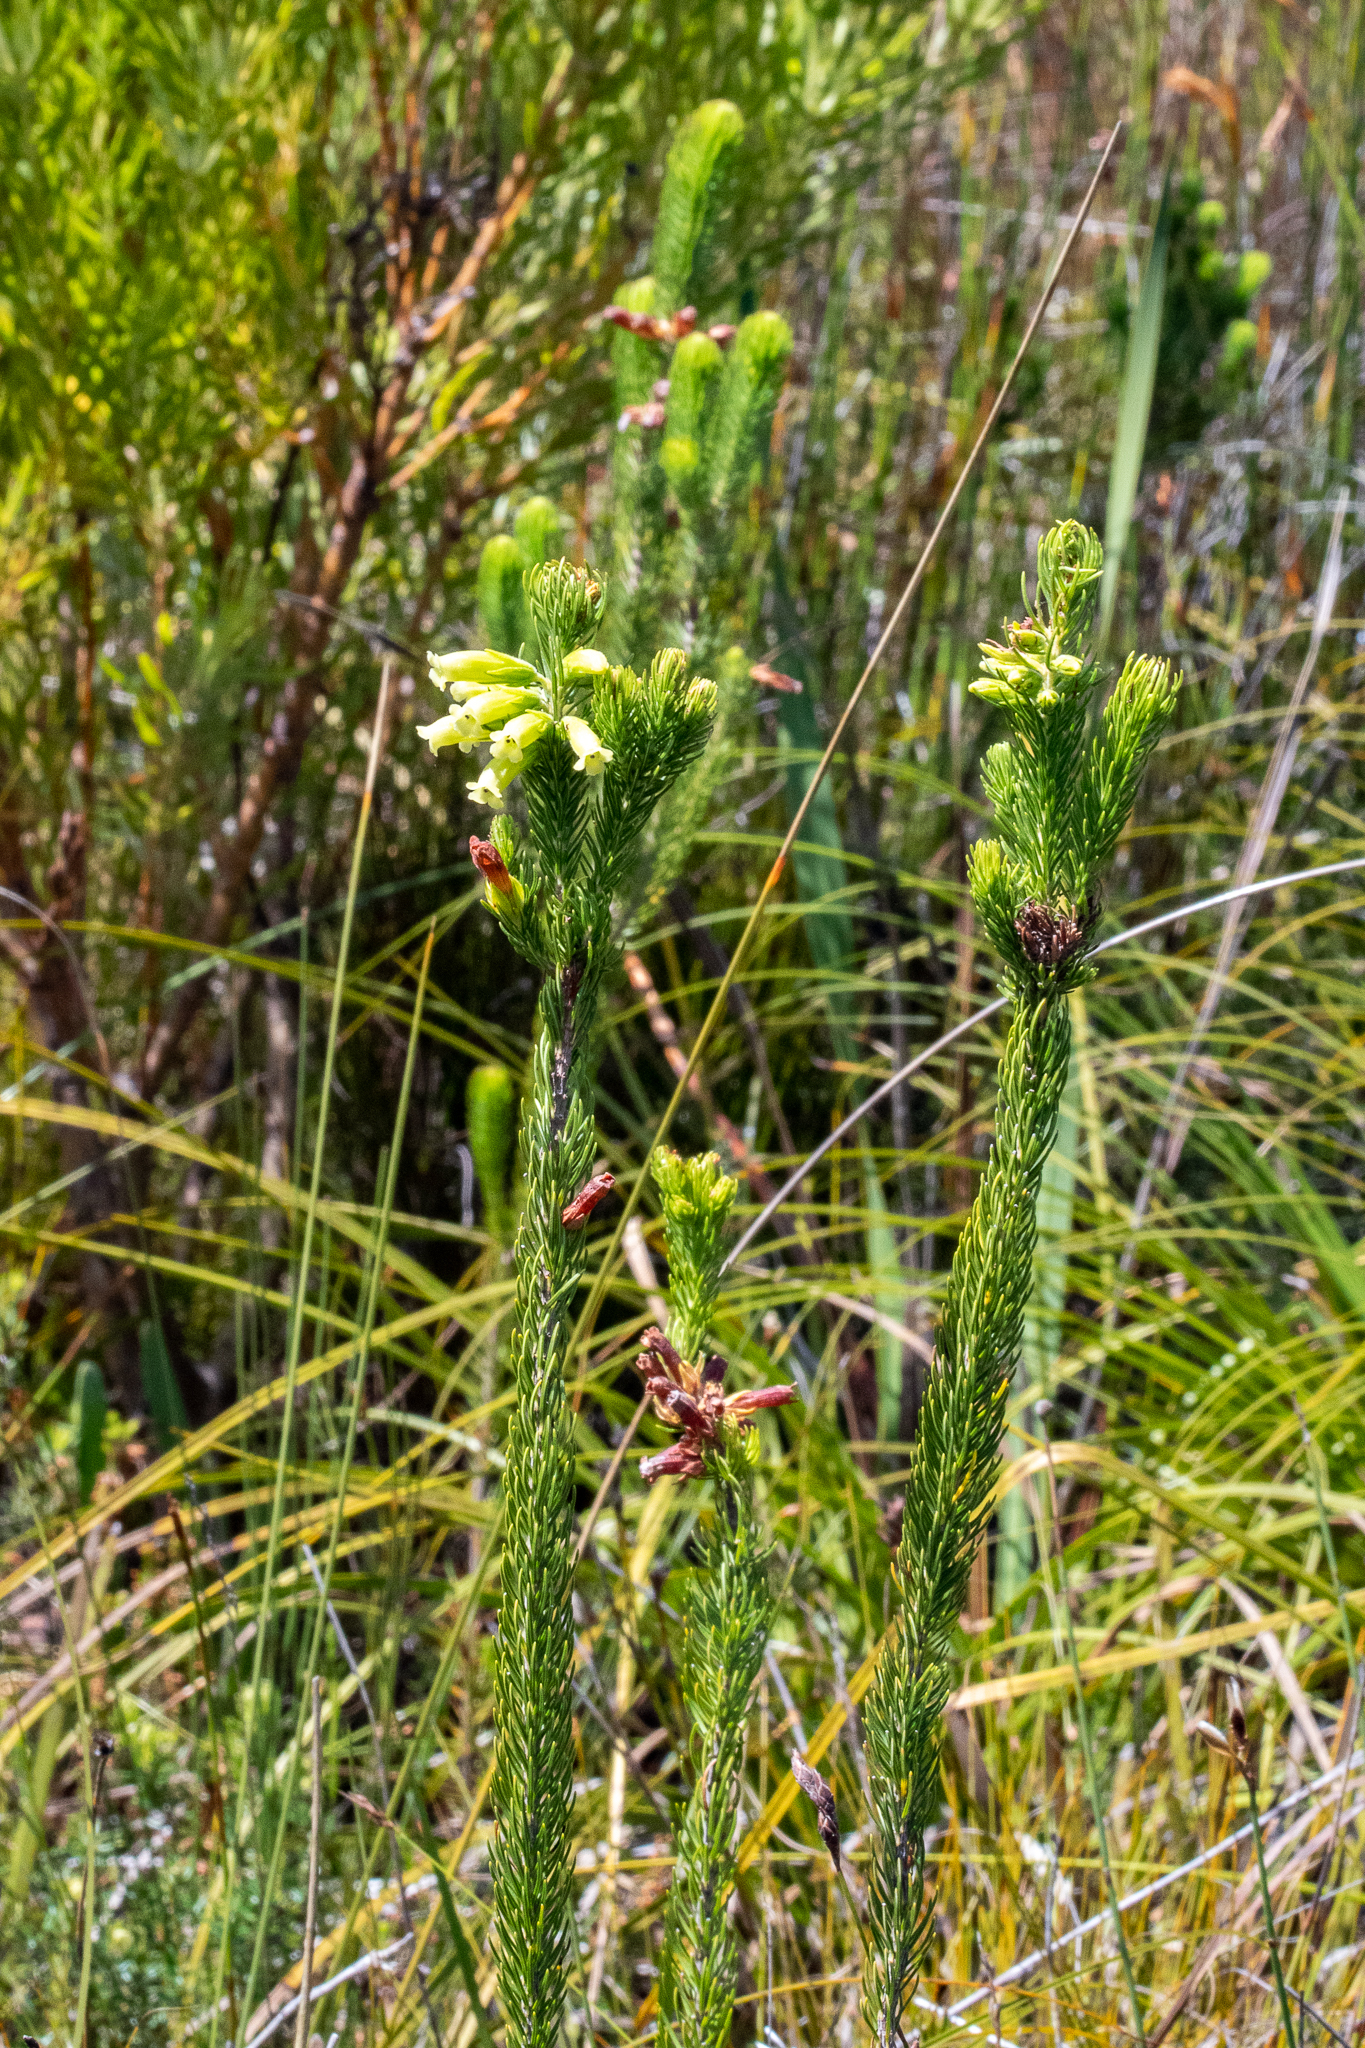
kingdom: Plantae
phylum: Tracheophyta
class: Magnoliopsida
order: Ericales
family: Ericaceae
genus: Erica
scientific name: Erica viscaria
